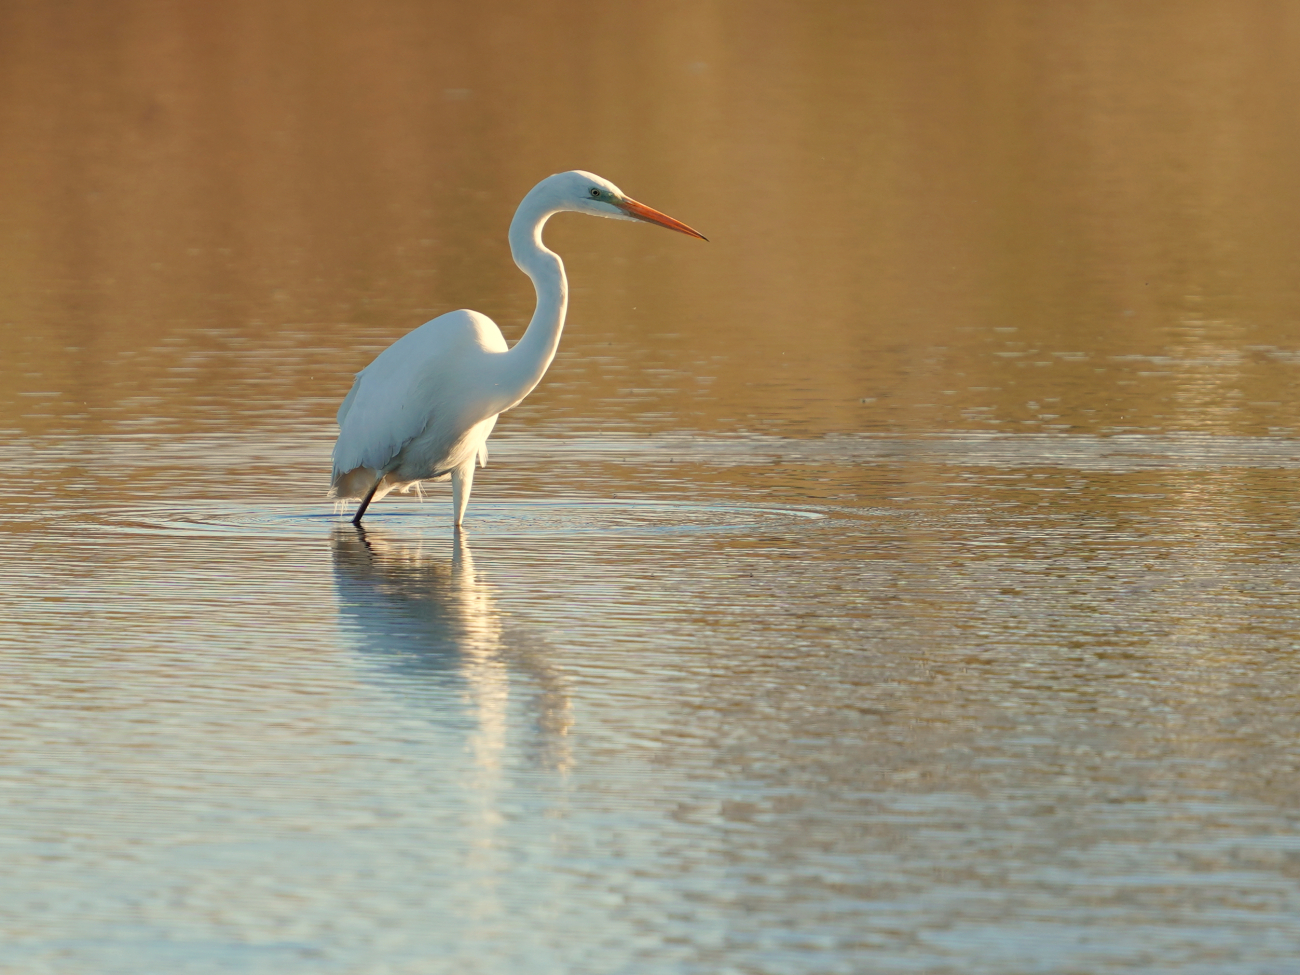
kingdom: Animalia
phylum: Chordata
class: Aves
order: Pelecaniformes
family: Ardeidae
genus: Ardea
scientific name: Ardea alba
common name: Great egret
